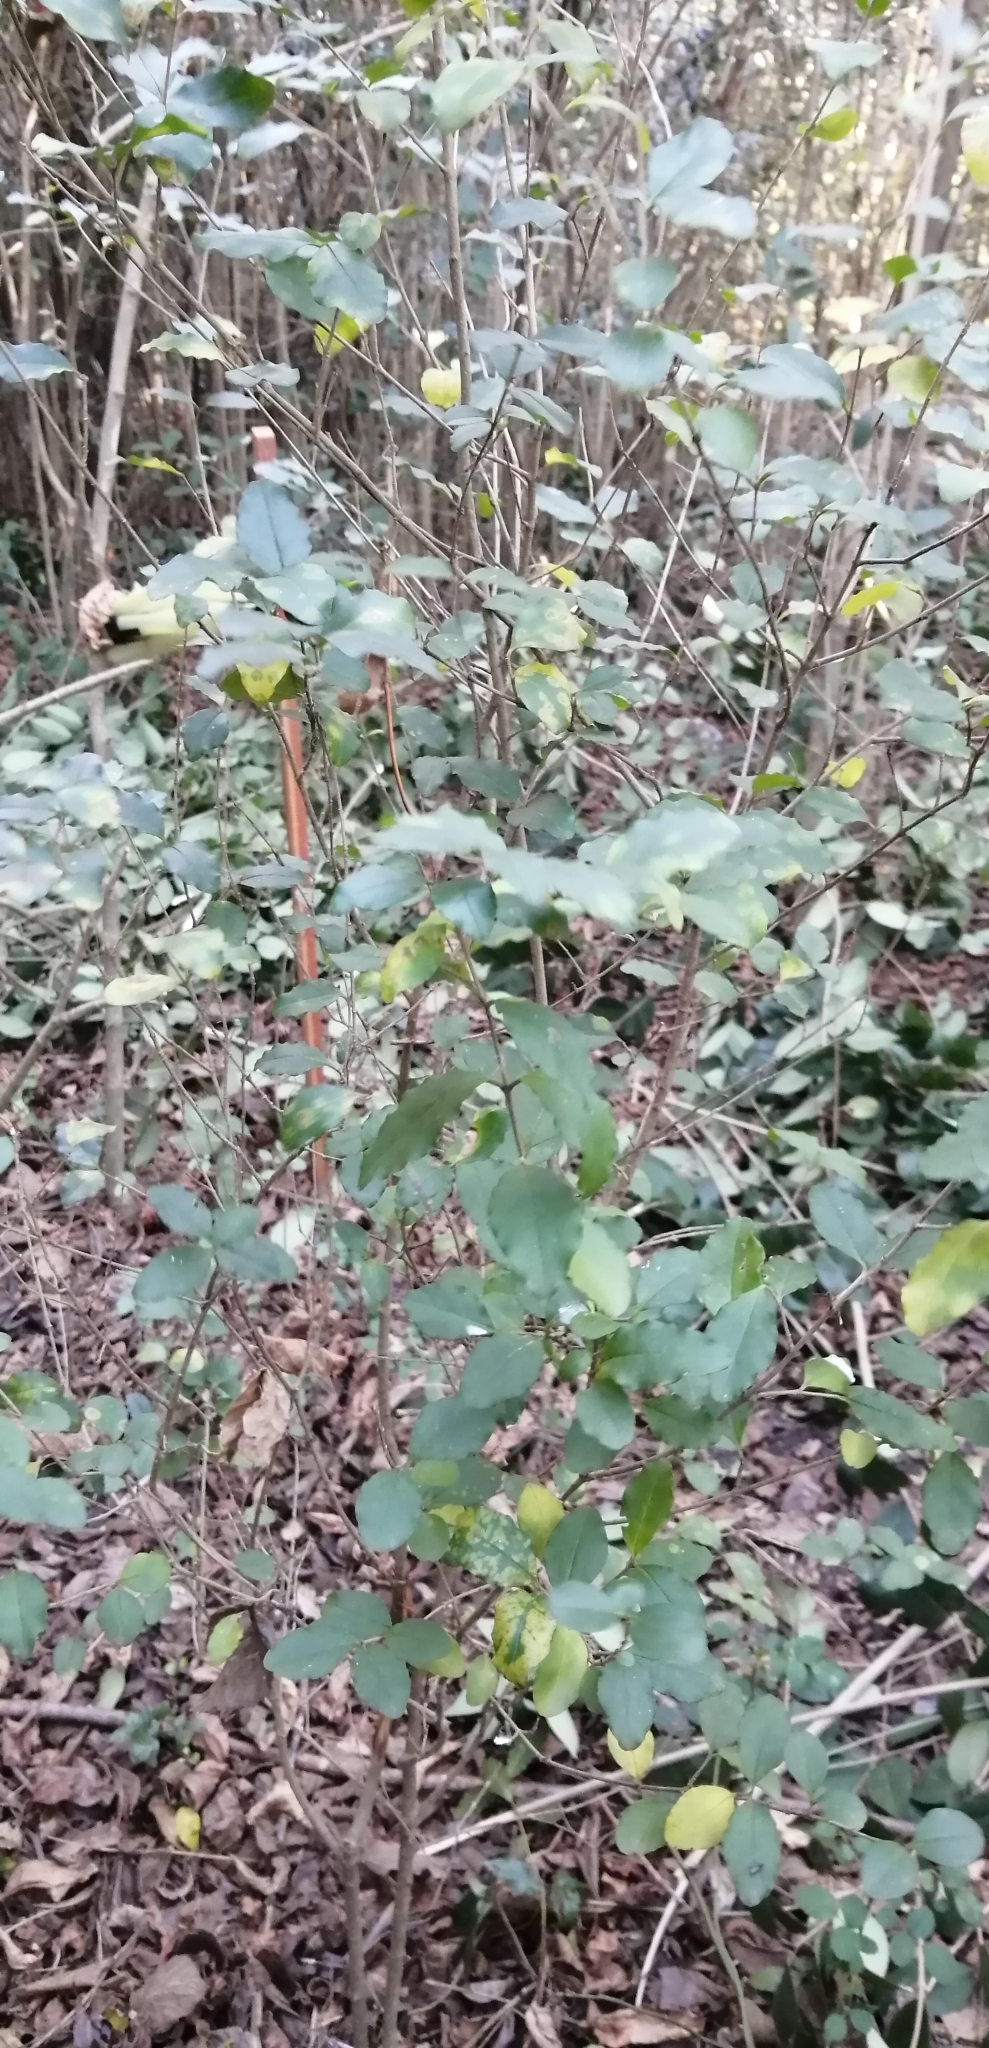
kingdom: Plantae
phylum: Tracheophyta
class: Magnoliopsida
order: Lamiales
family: Oleaceae
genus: Ligustrum
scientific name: Ligustrum sinense
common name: Chinese privet
